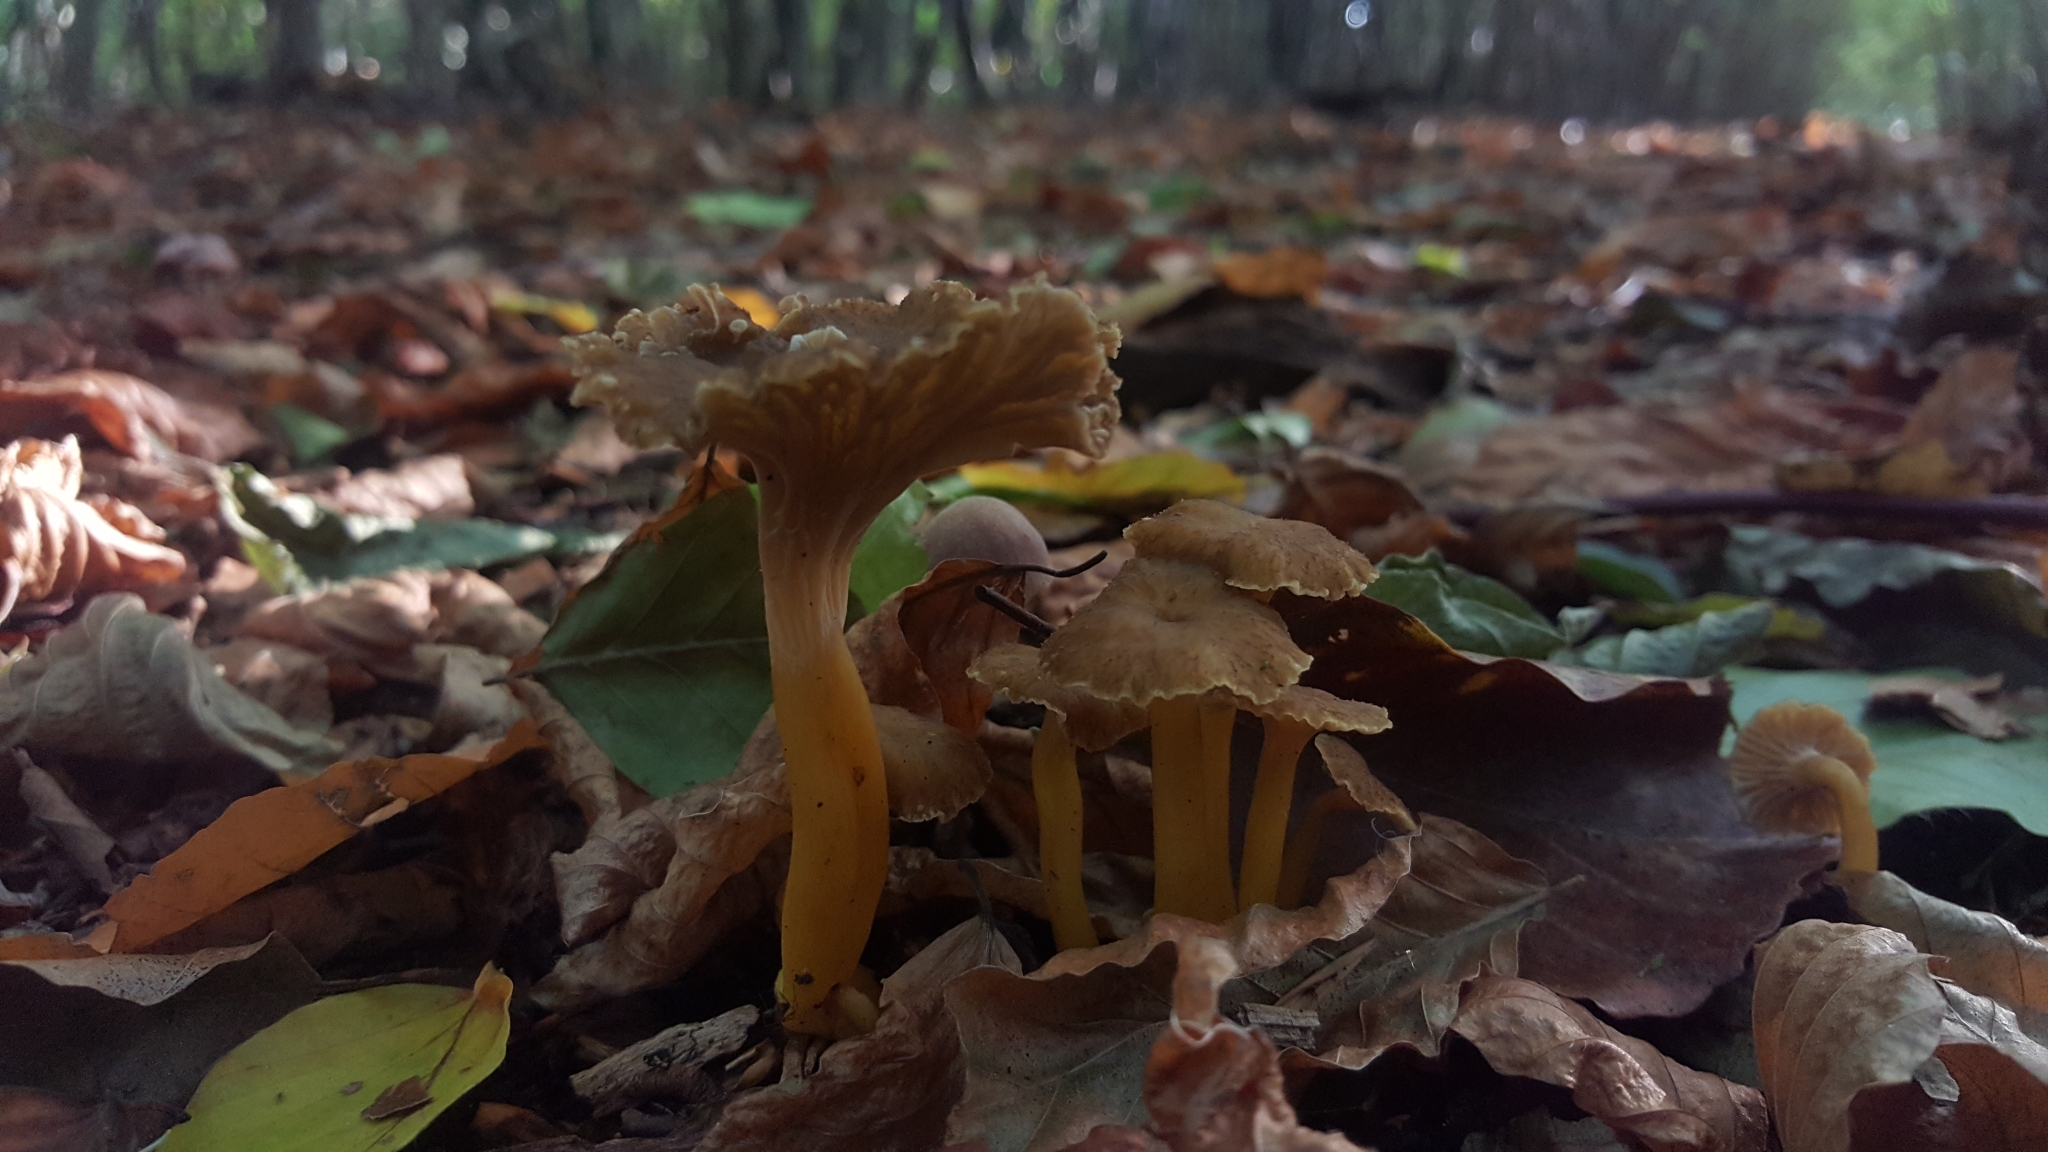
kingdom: Fungi
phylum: Basidiomycota
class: Agaricomycetes
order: Cantharellales
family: Hydnaceae
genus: Craterellus
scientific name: Craterellus tubaeformis
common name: Yellowfoot
